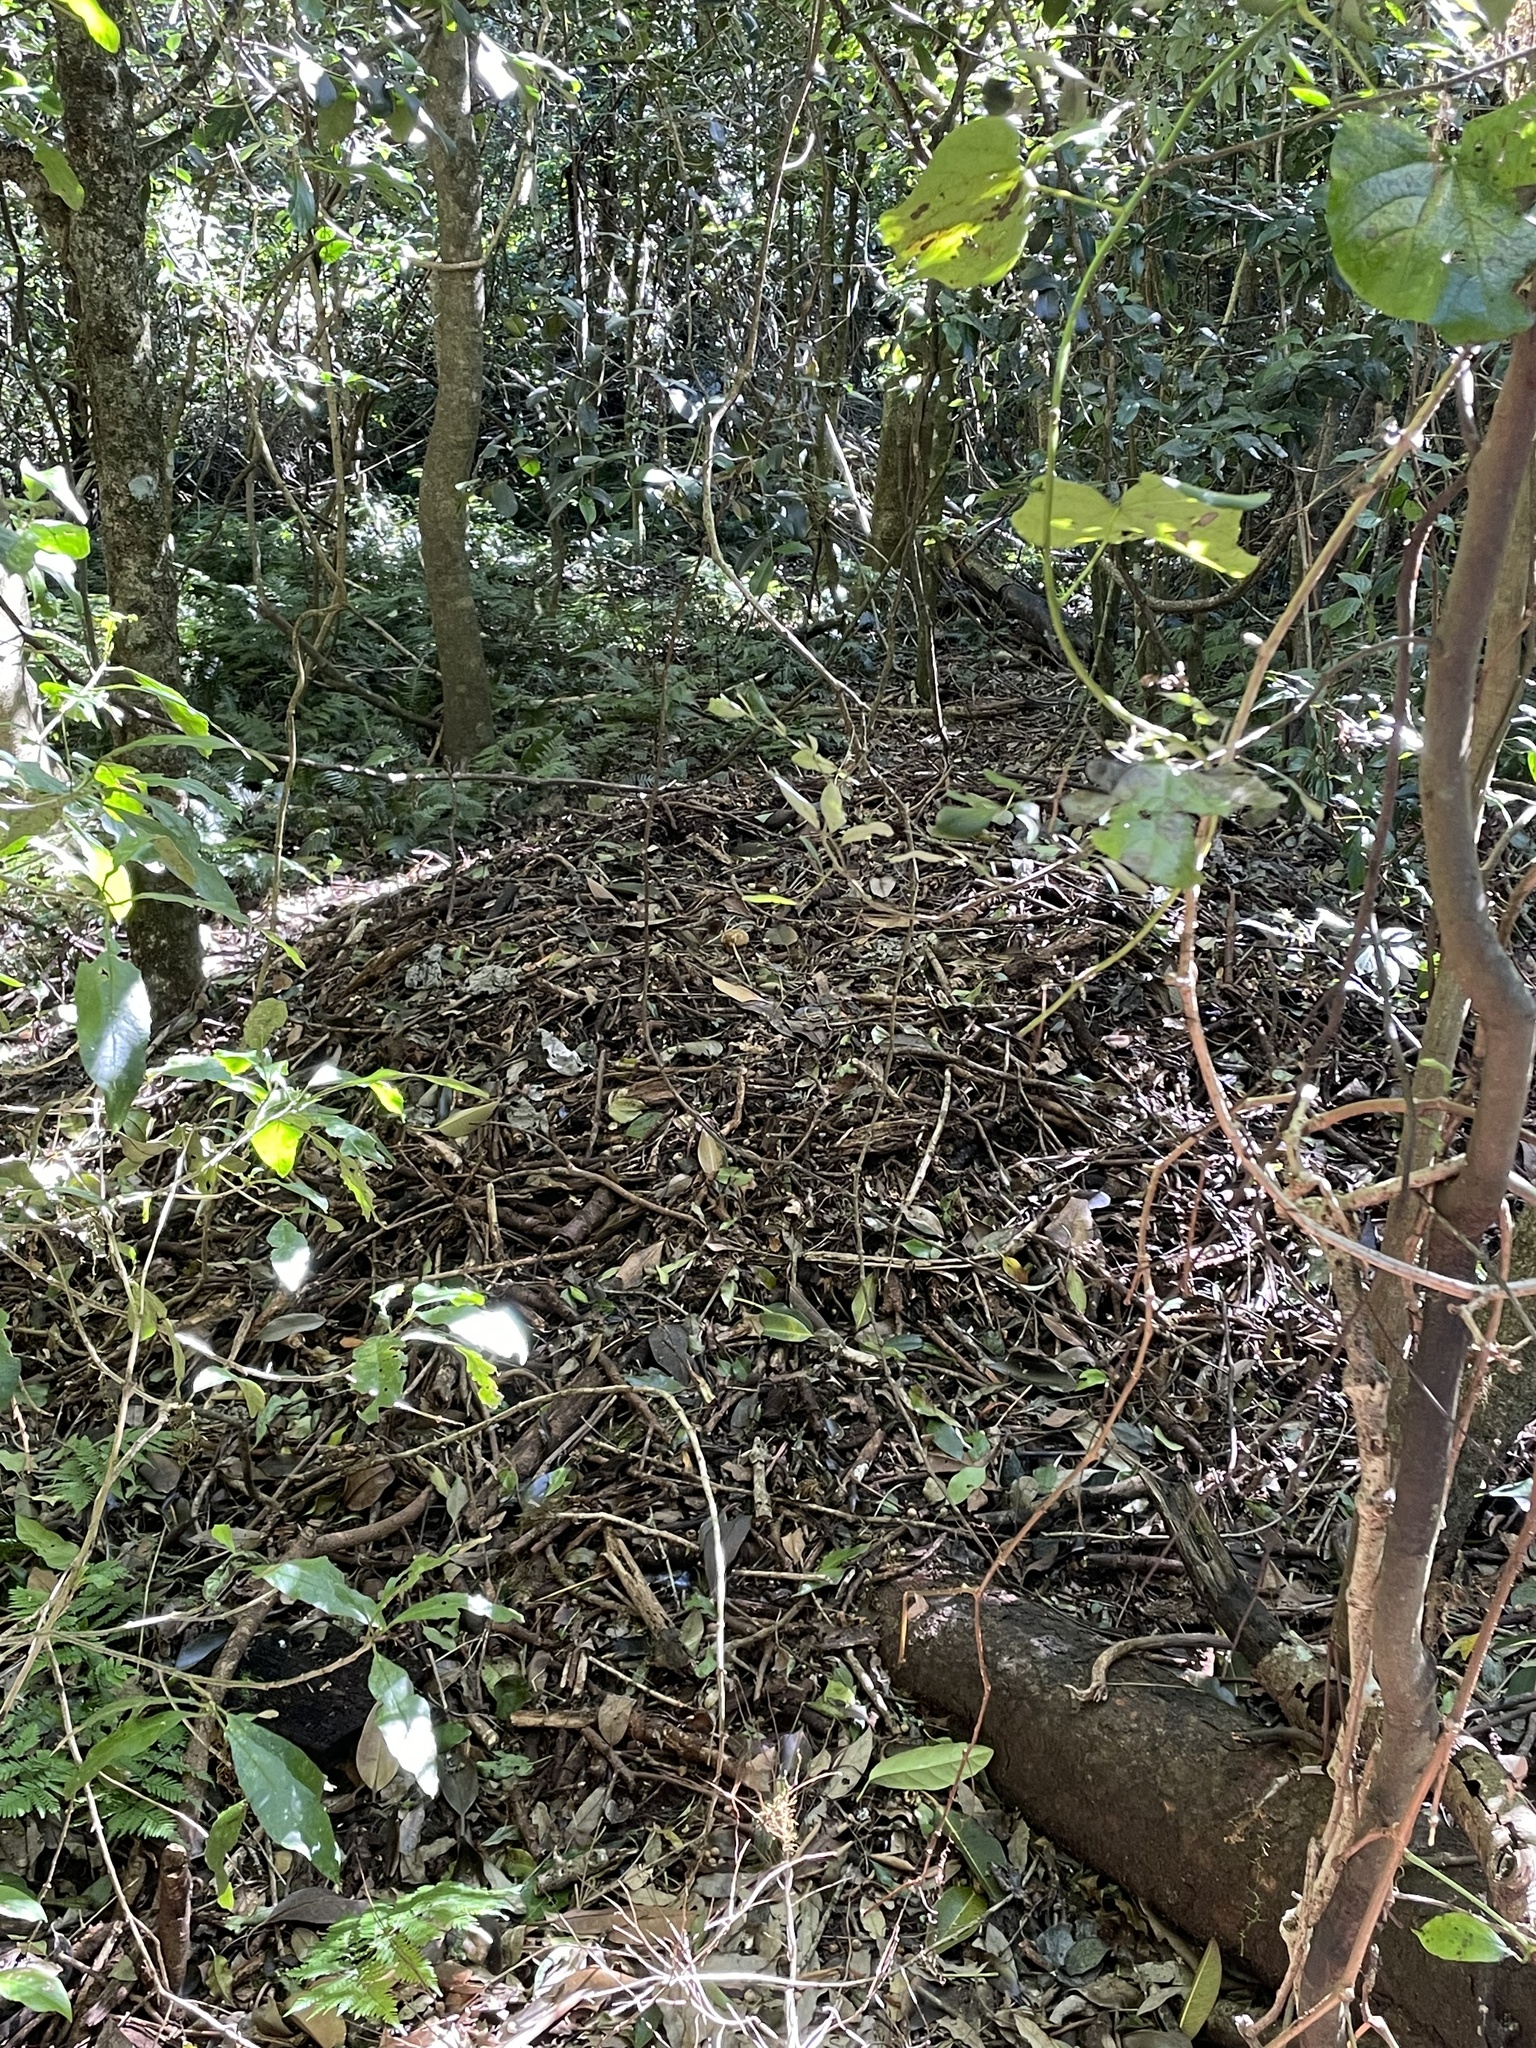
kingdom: Animalia
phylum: Chordata
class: Aves
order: Galliformes
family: Megapodiidae
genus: Alectura
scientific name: Alectura lathami
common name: Australian brushturkey
